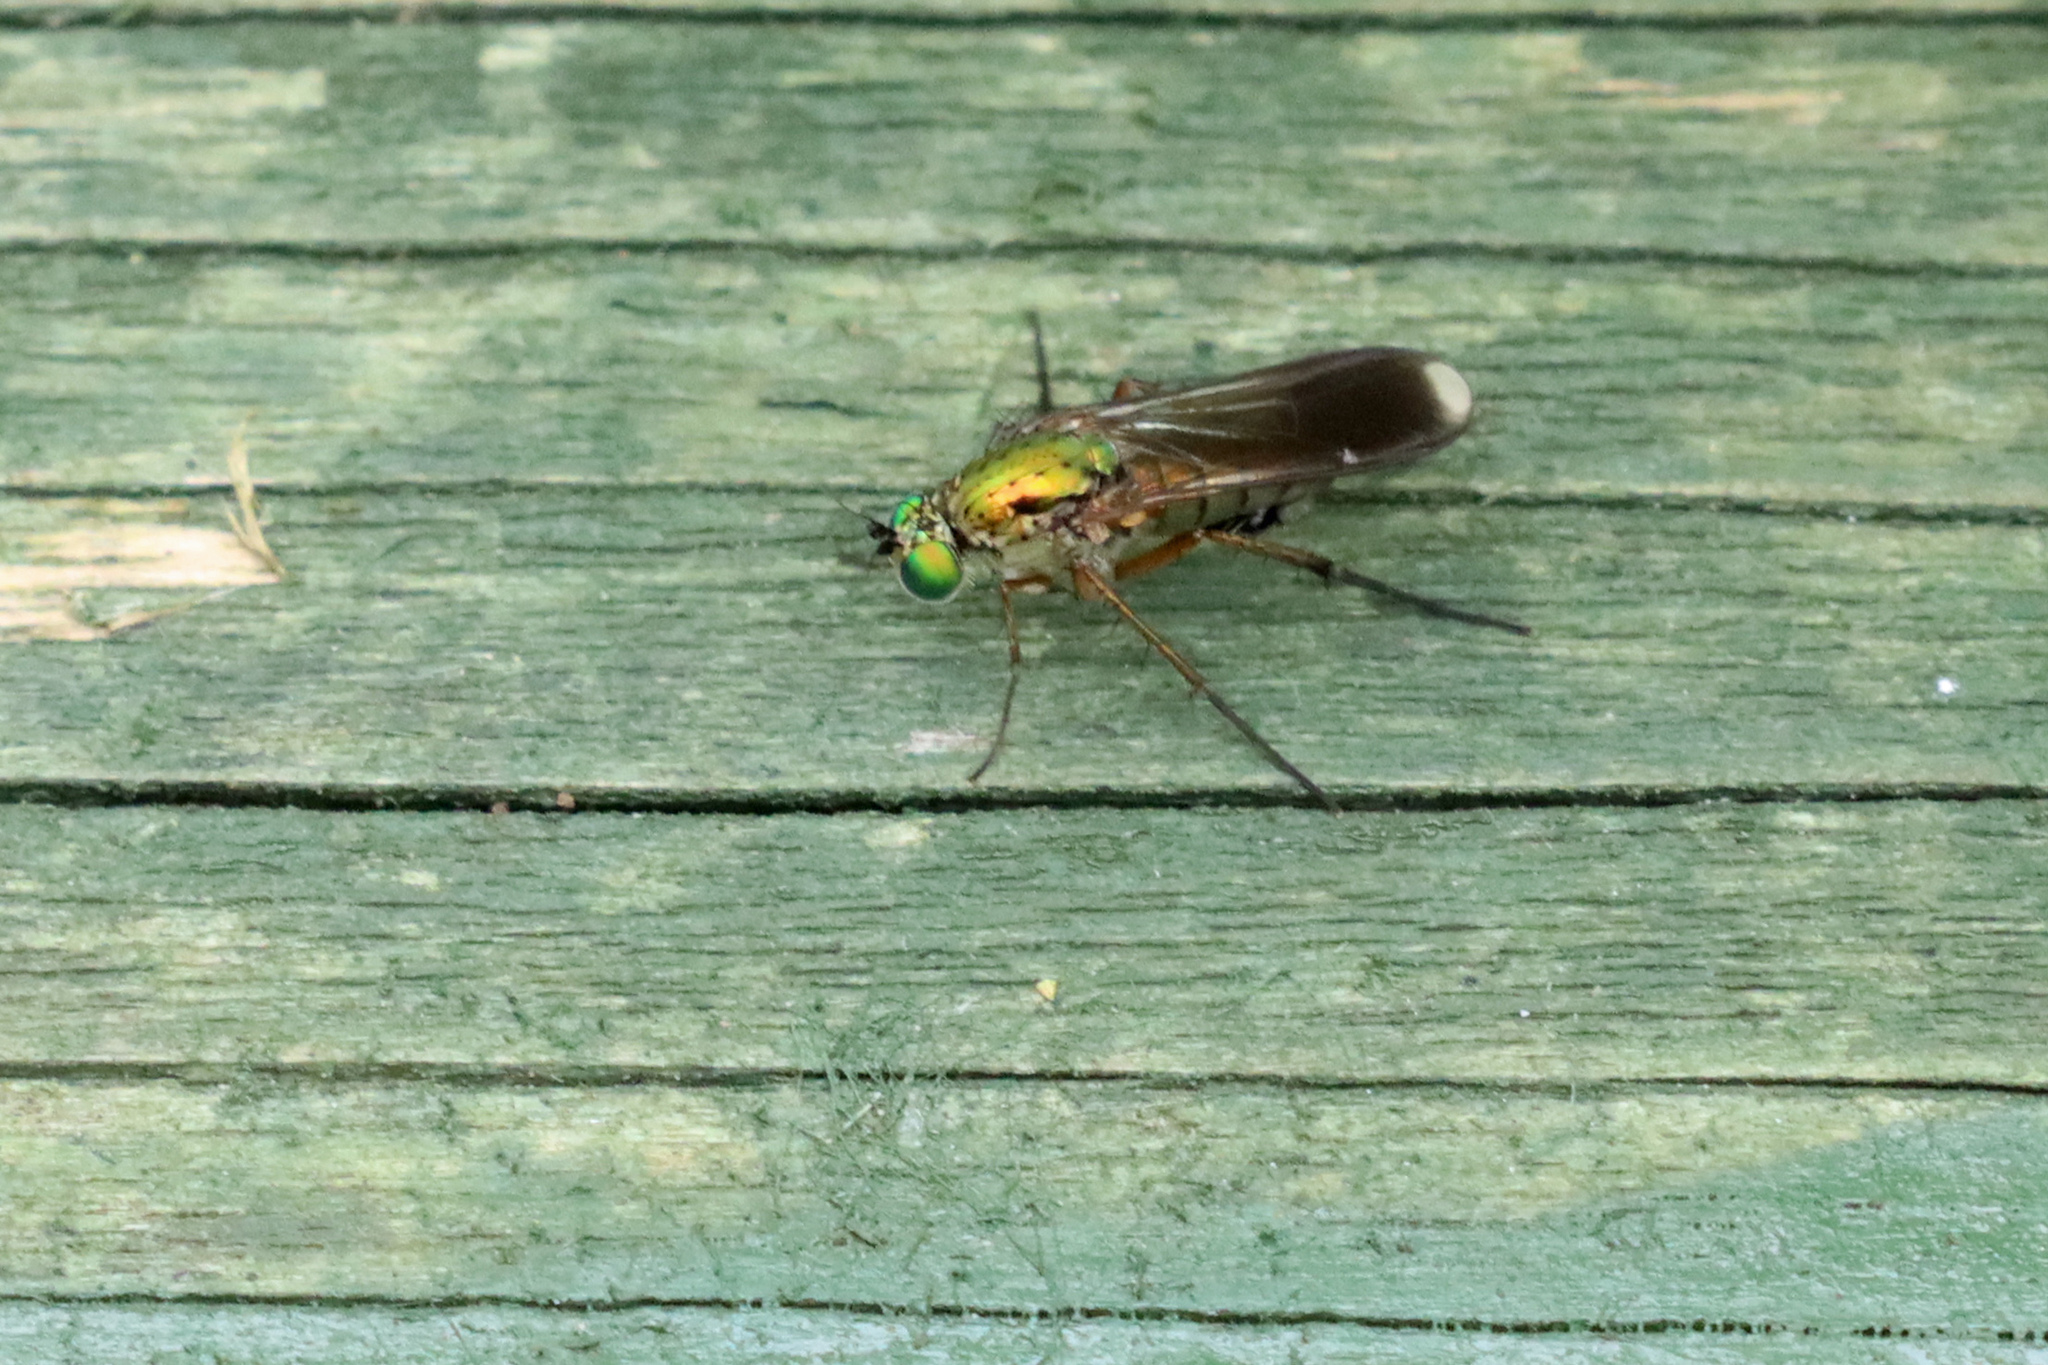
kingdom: Animalia
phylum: Arthropoda
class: Insecta
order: Diptera
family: Dolichopodidae
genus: Poecilobothrus
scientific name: Poecilobothrus nobilitatus
